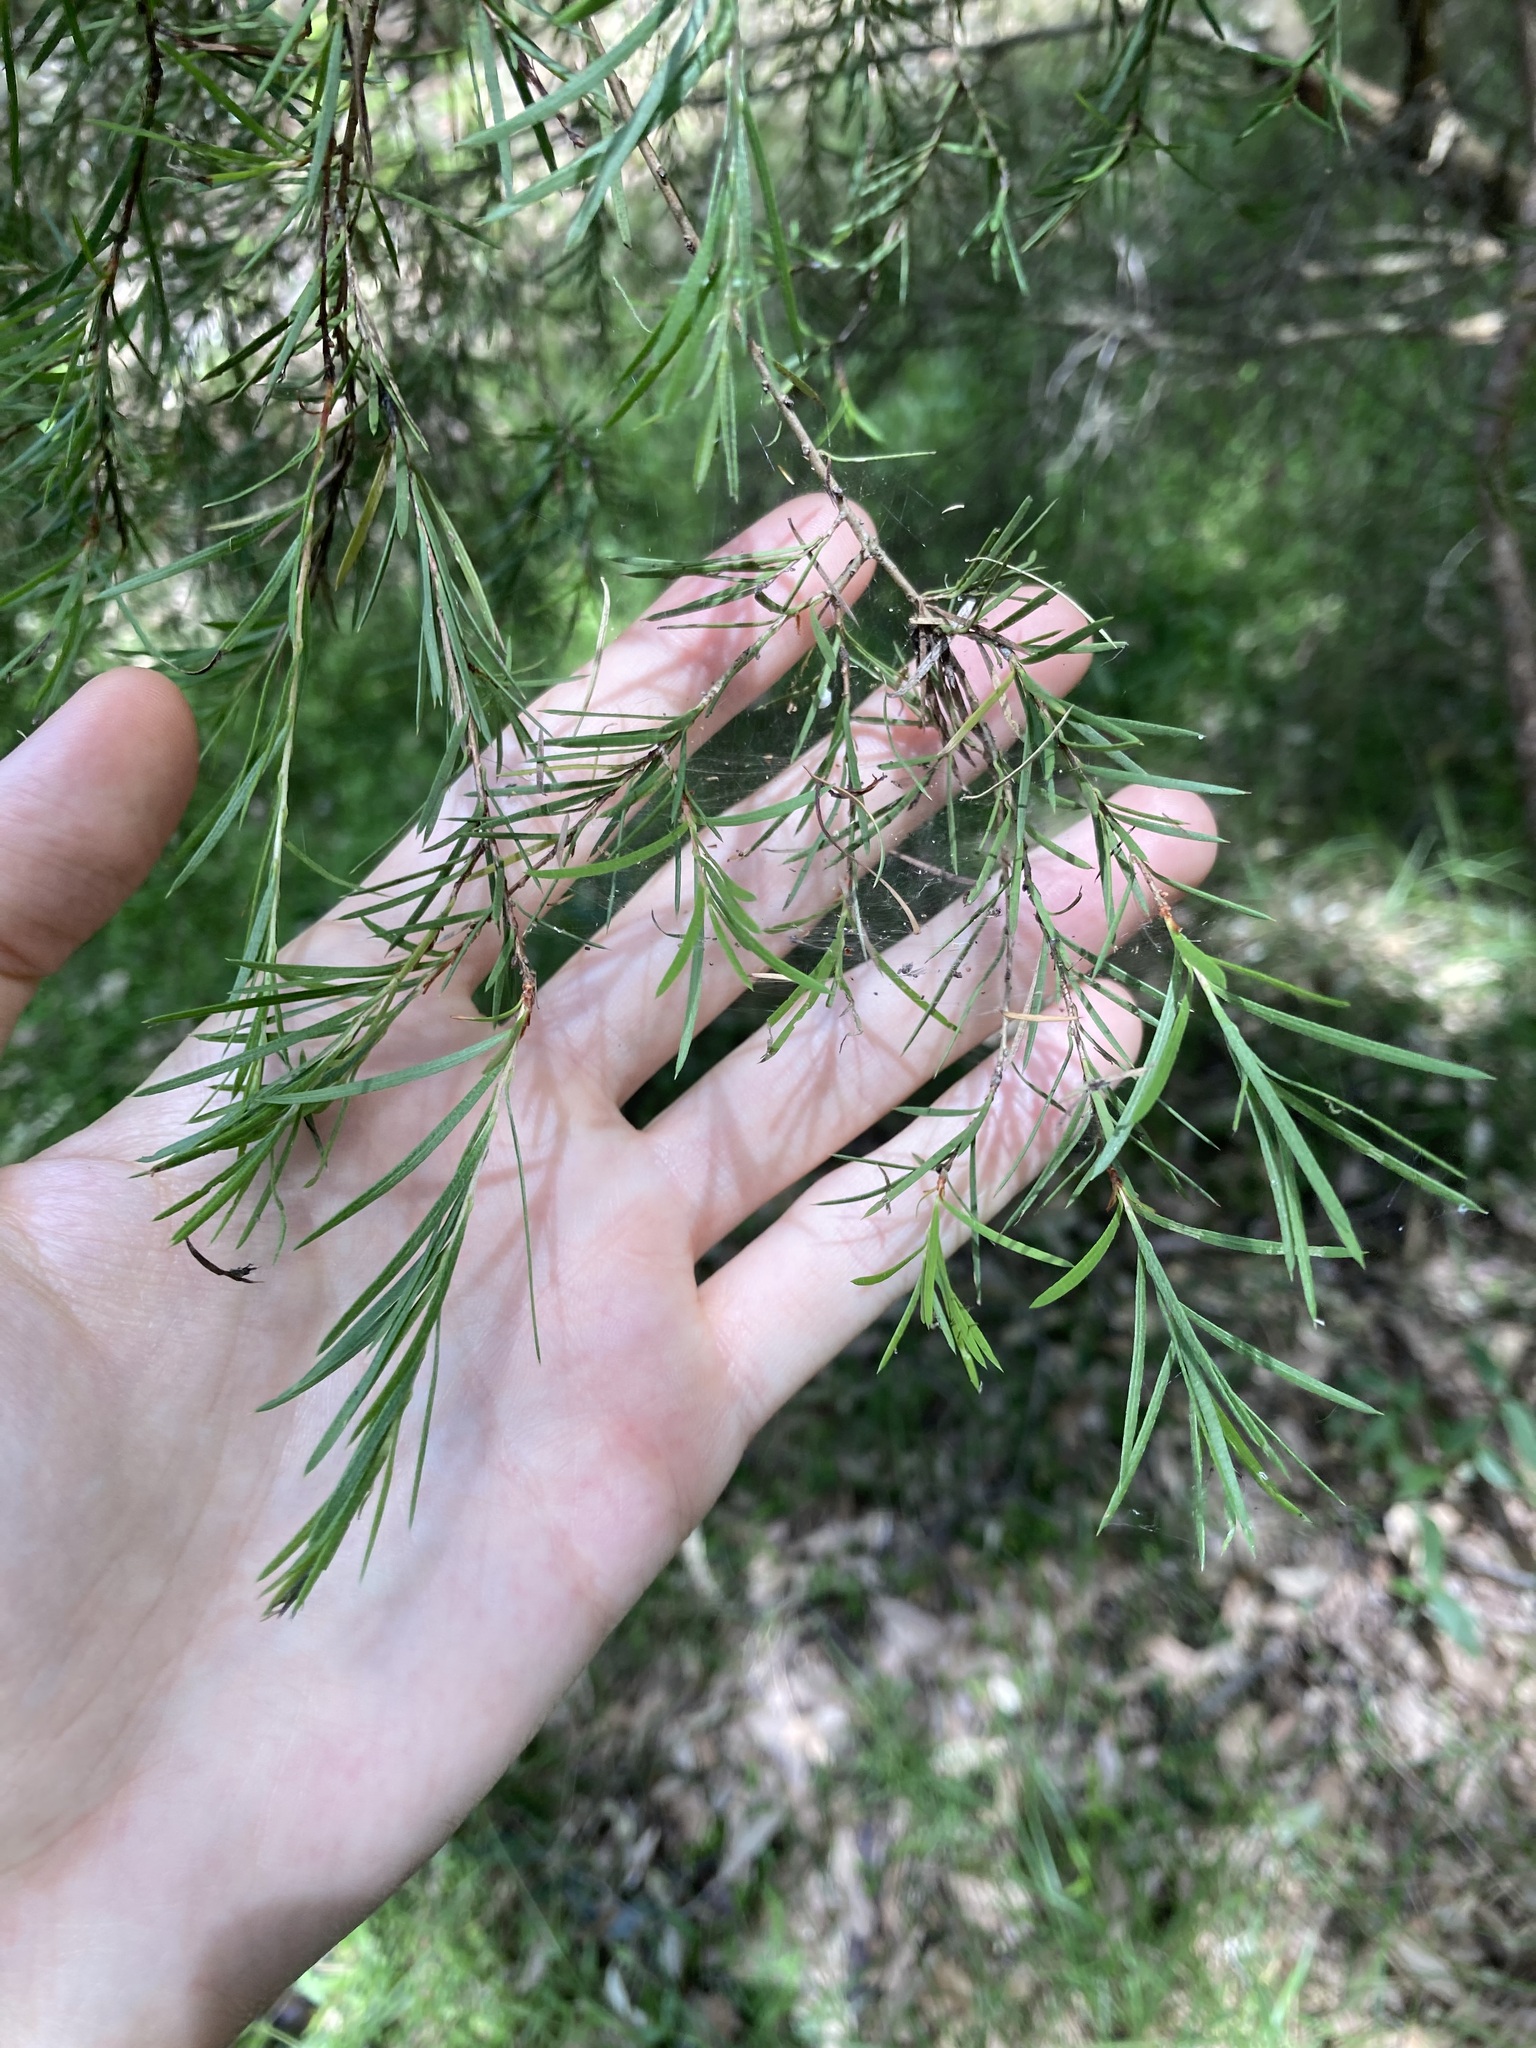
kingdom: Plantae
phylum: Tracheophyta
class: Magnoliopsida
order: Myrtales
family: Myrtaceae
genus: Melaleuca
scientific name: Melaleuca linariifolia
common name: Cajeput tree
